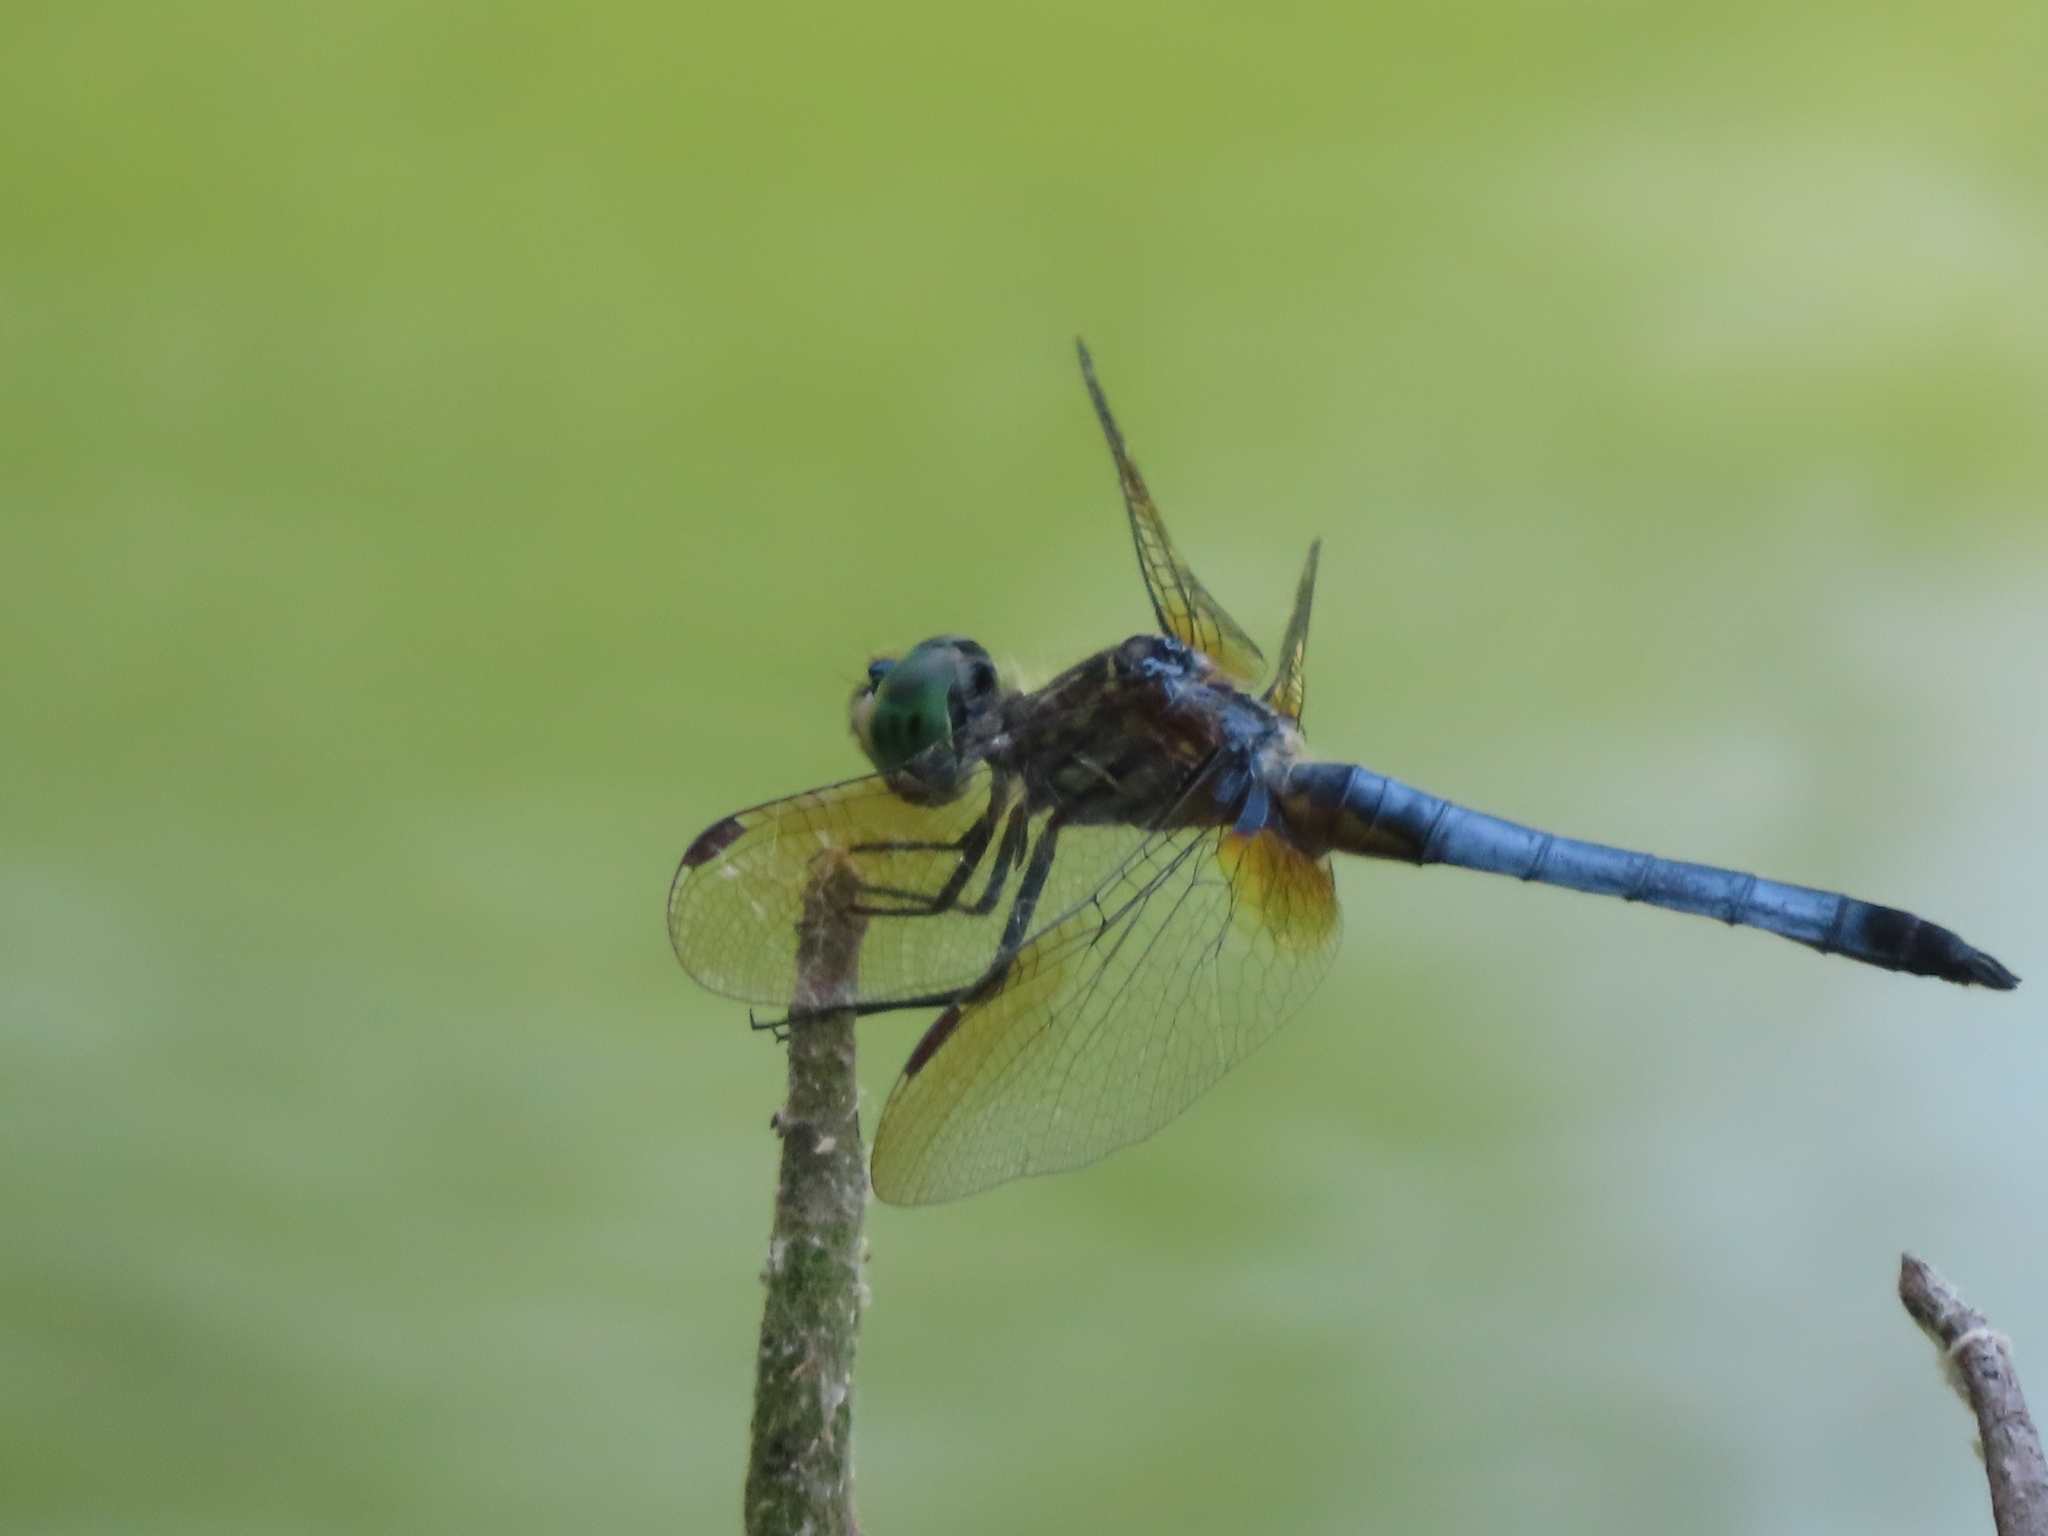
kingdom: Animalia
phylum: Arthropoda
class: Insecta
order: Odonata
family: Libellulidae
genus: Pachydiplax
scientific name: Pachydiplax longipennis
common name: Blue dasher
